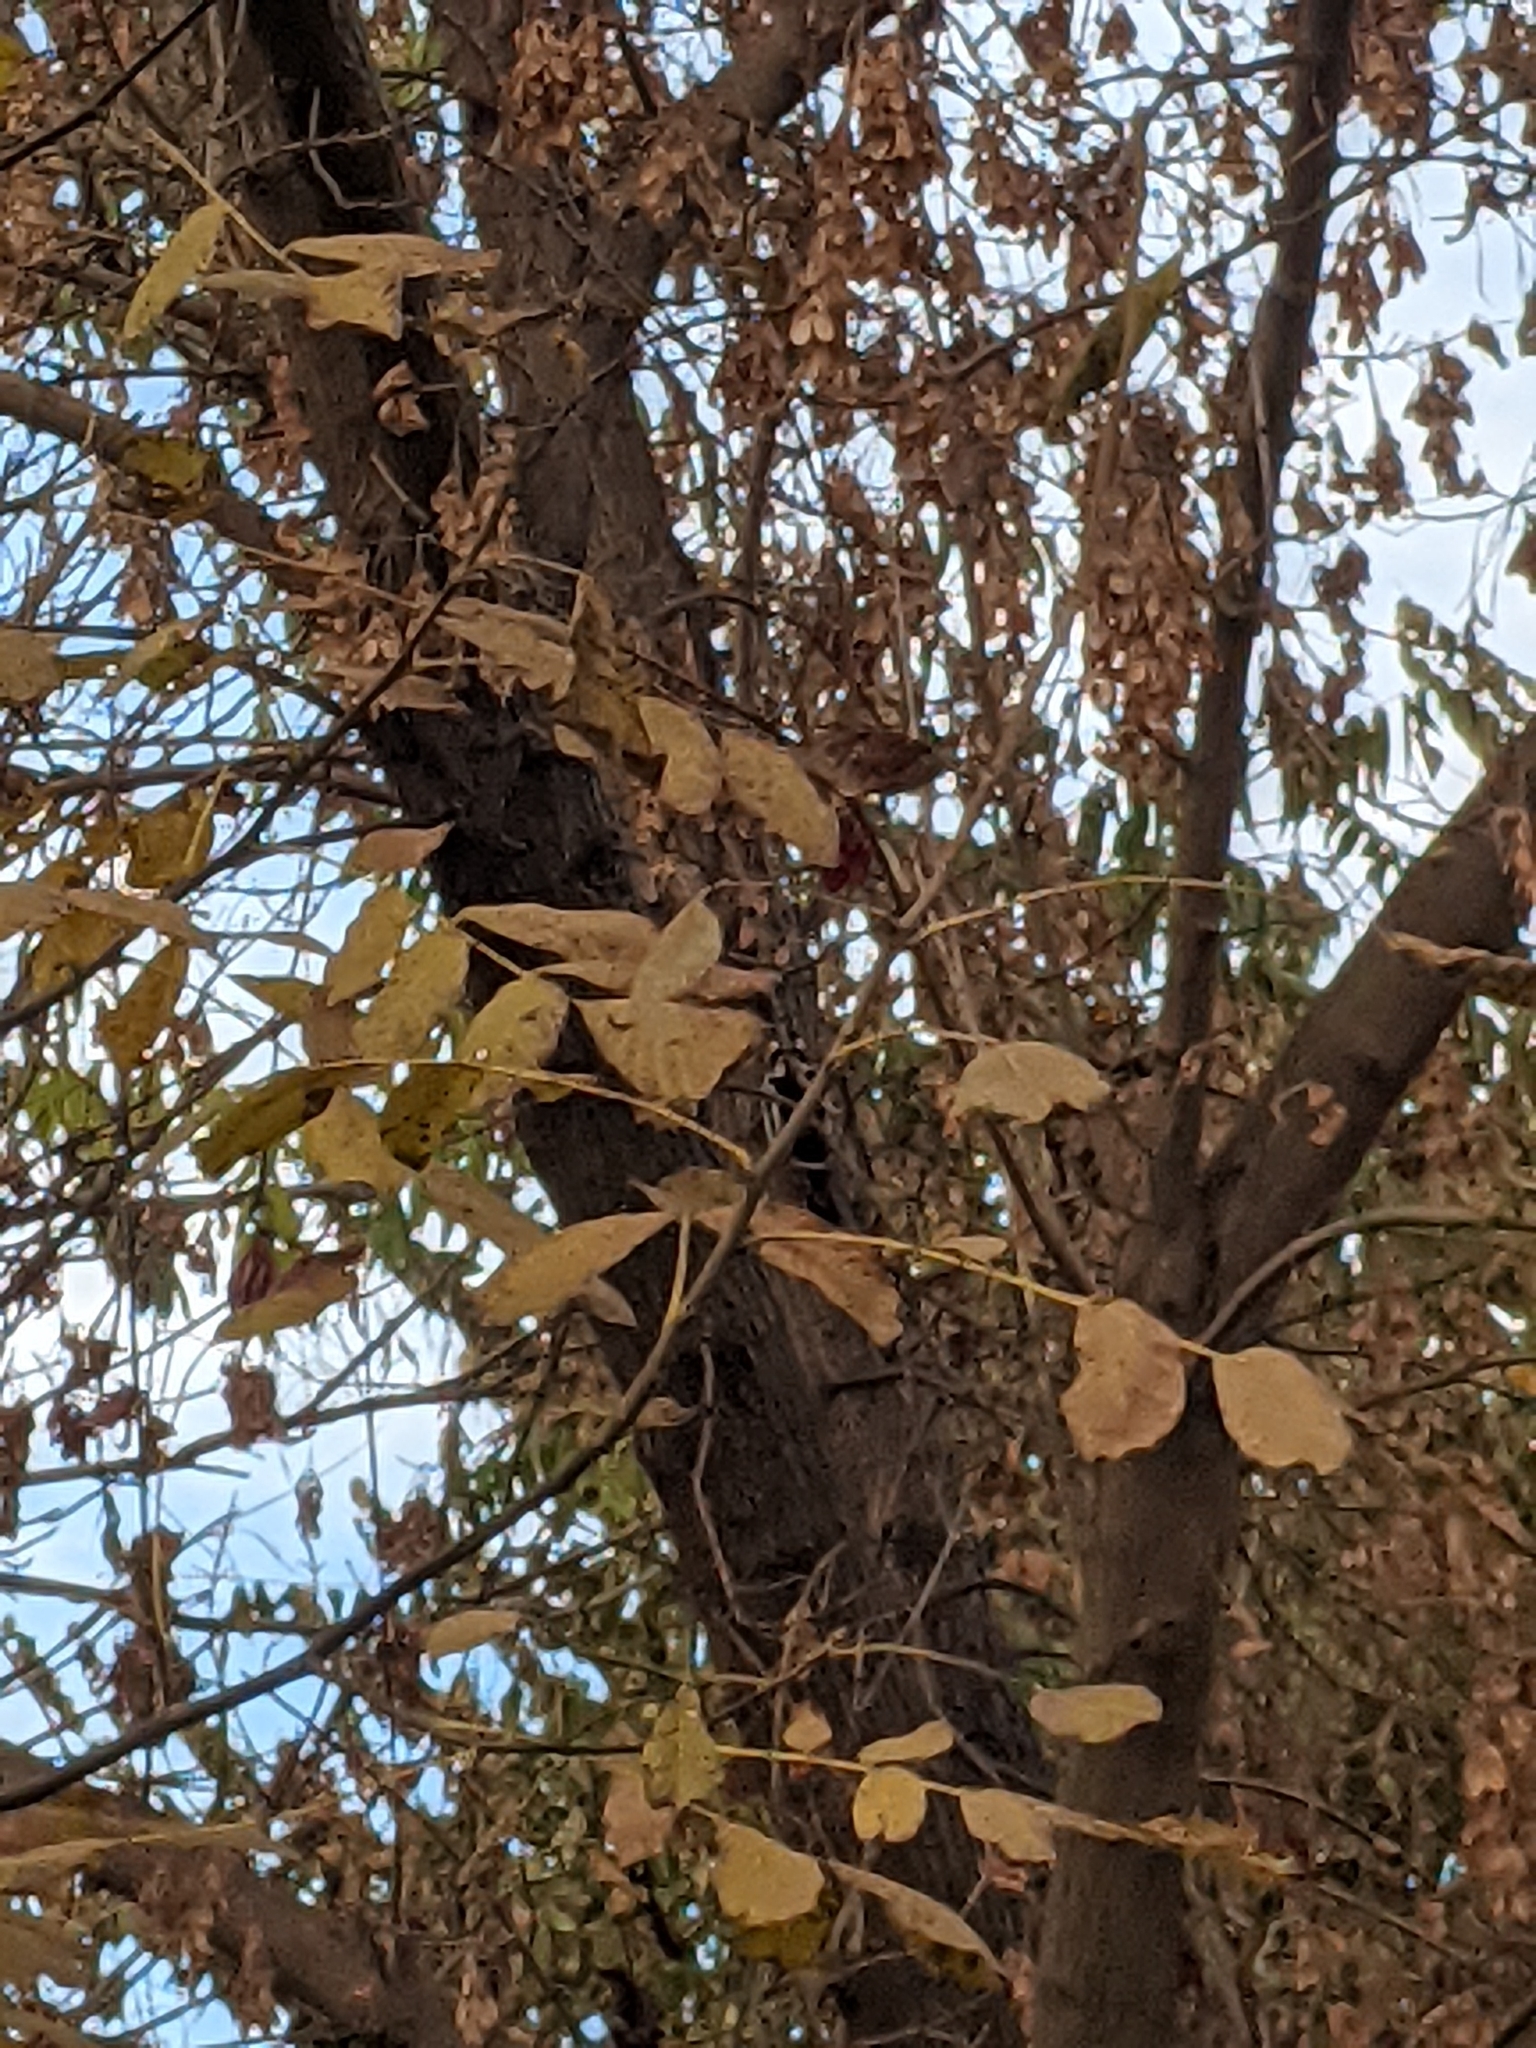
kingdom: Animalia
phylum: Chordata
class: Aves
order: Piciformes
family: Picidae
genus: Dendrocopos
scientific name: Dendrocopos major
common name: Great spotted woodpecker
